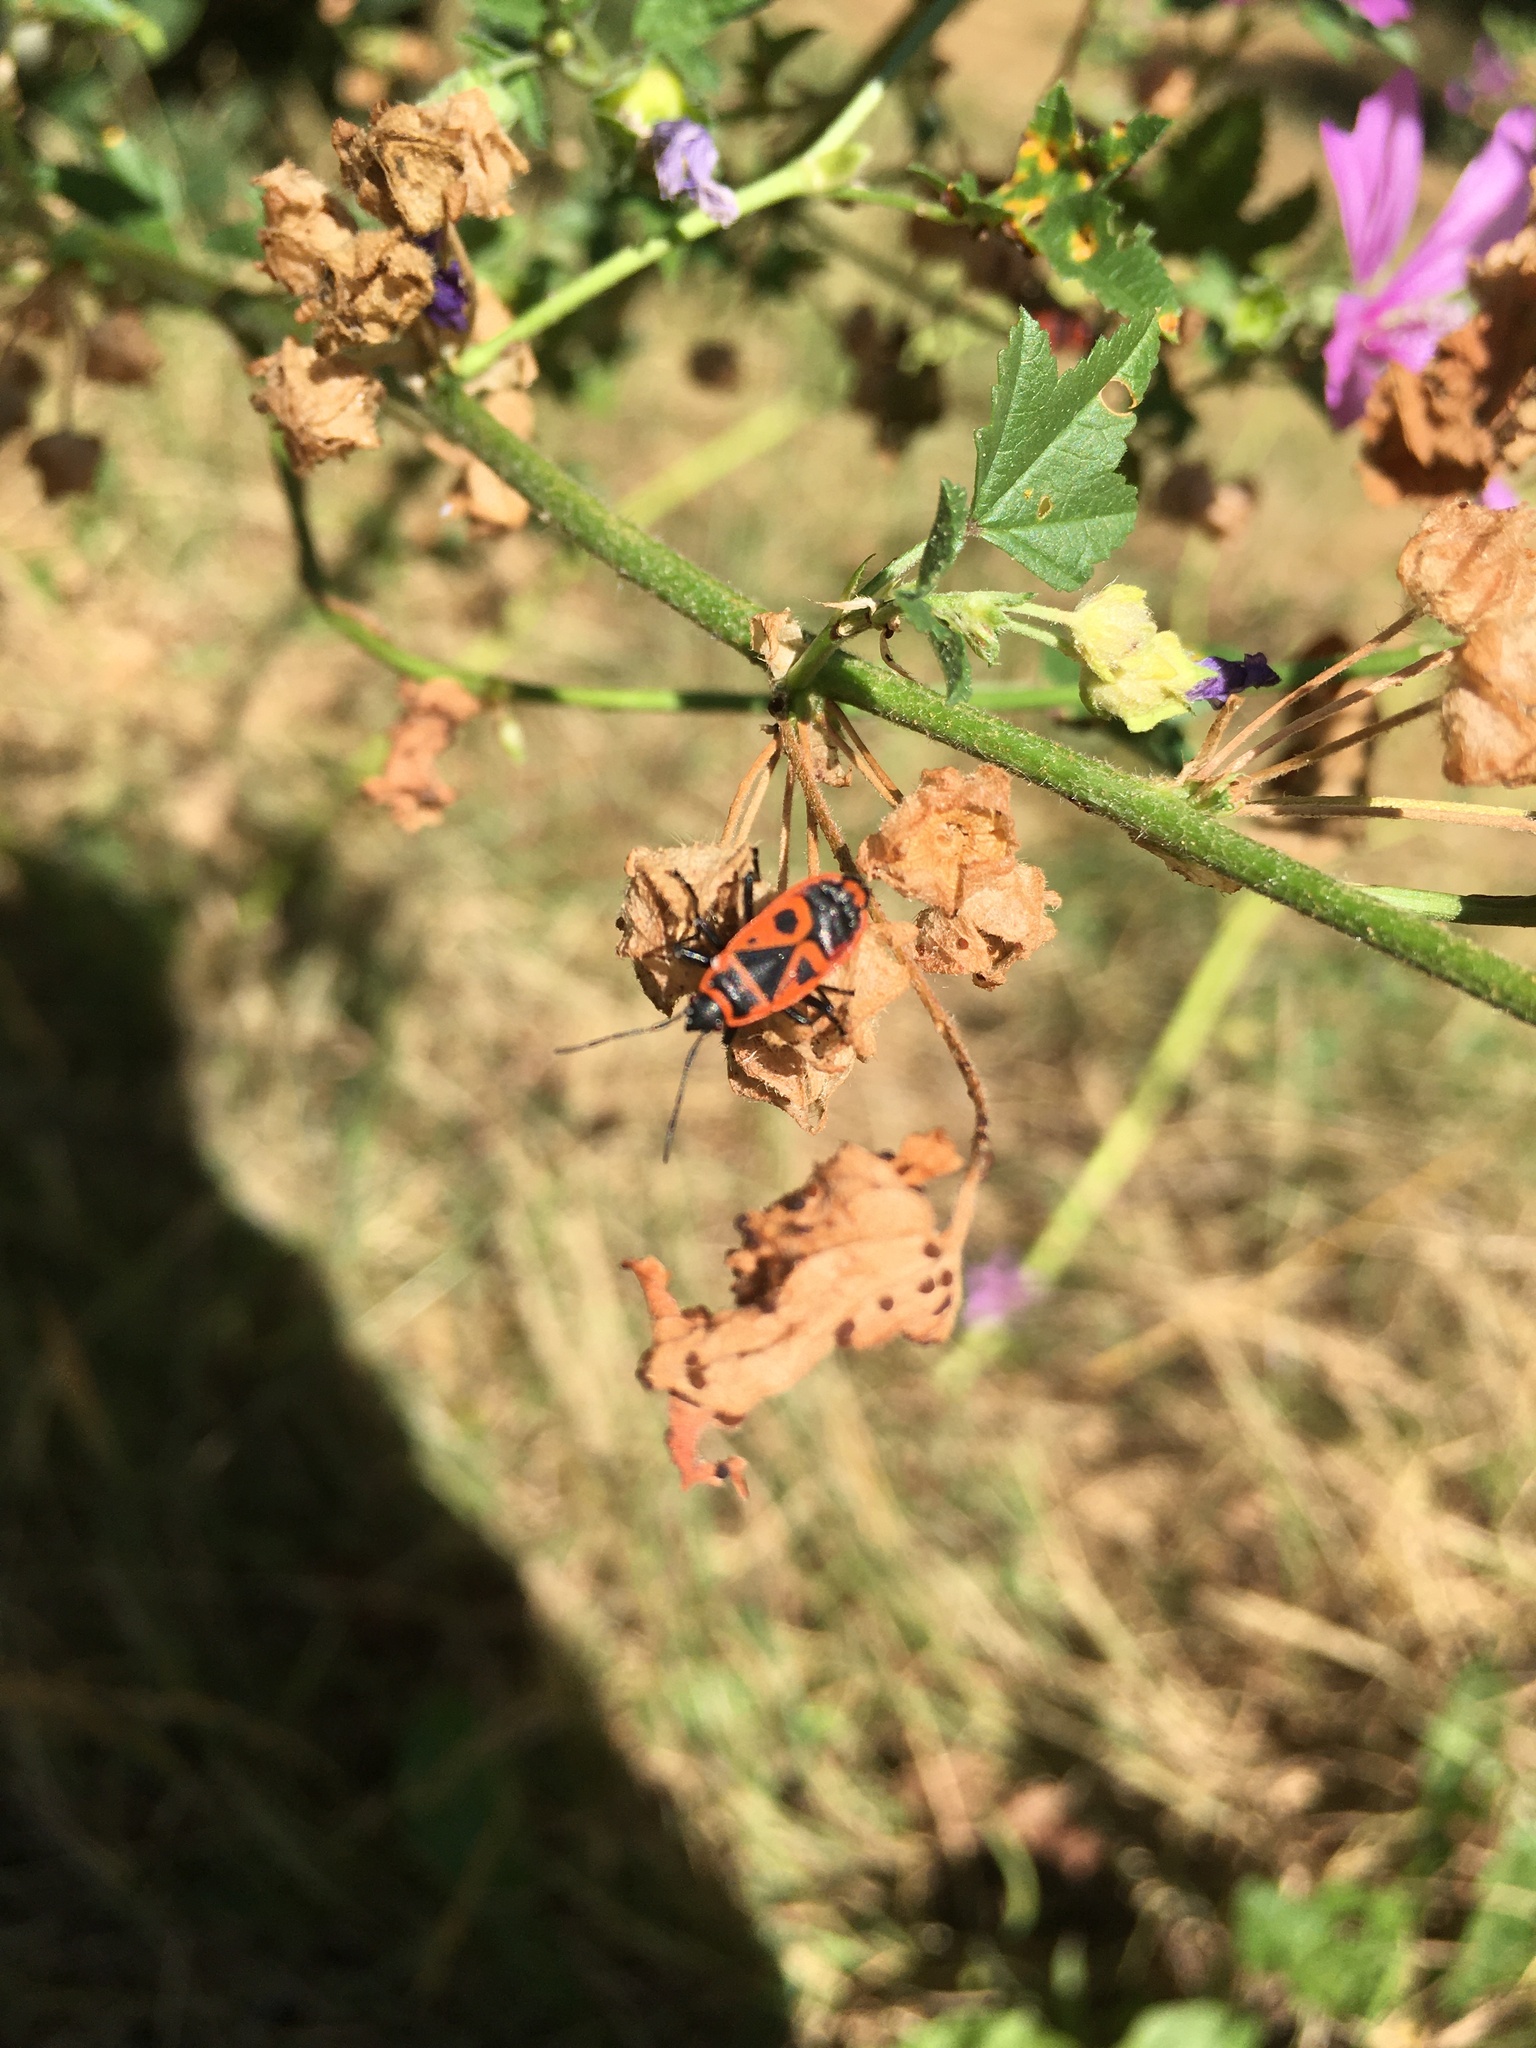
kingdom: Animalia
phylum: Arthropoda
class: Insecta
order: Hemiptera
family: Pyrrhocoridae
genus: Pyrrhocoris
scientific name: Pyrrhocoris apterus
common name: Firebug
